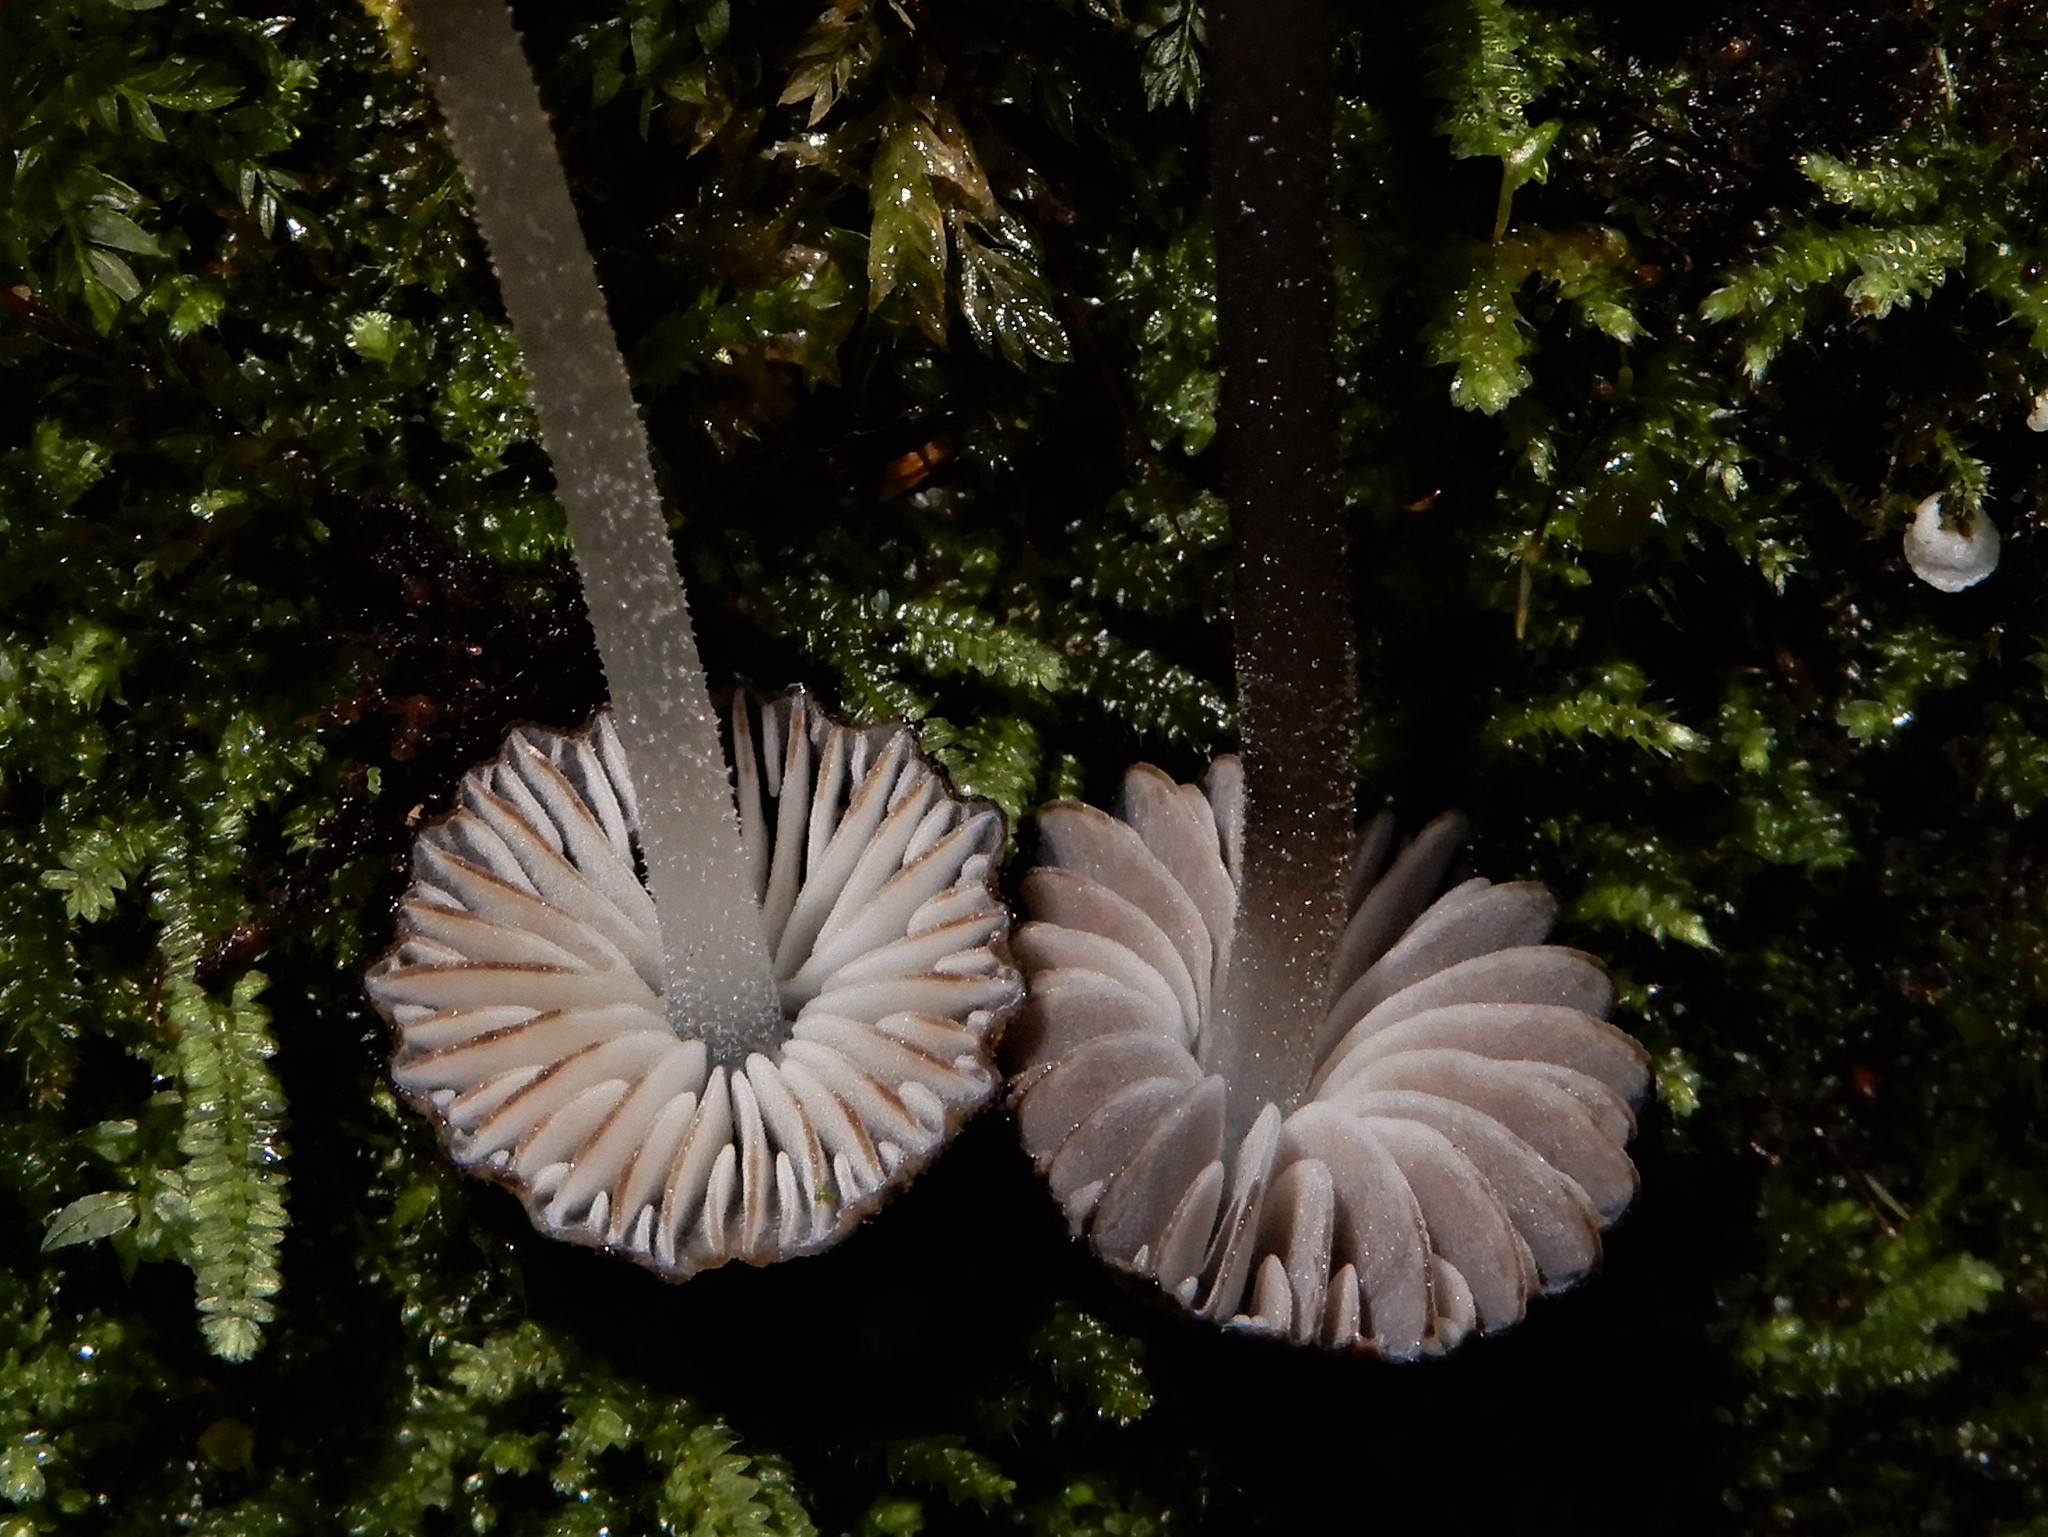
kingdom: Fungi
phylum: Basidiomycota
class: Agaricomycetes
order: Agaricales
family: Porotheleaceae
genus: Pseudohydropus
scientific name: Pseudohydropus parafunebris
